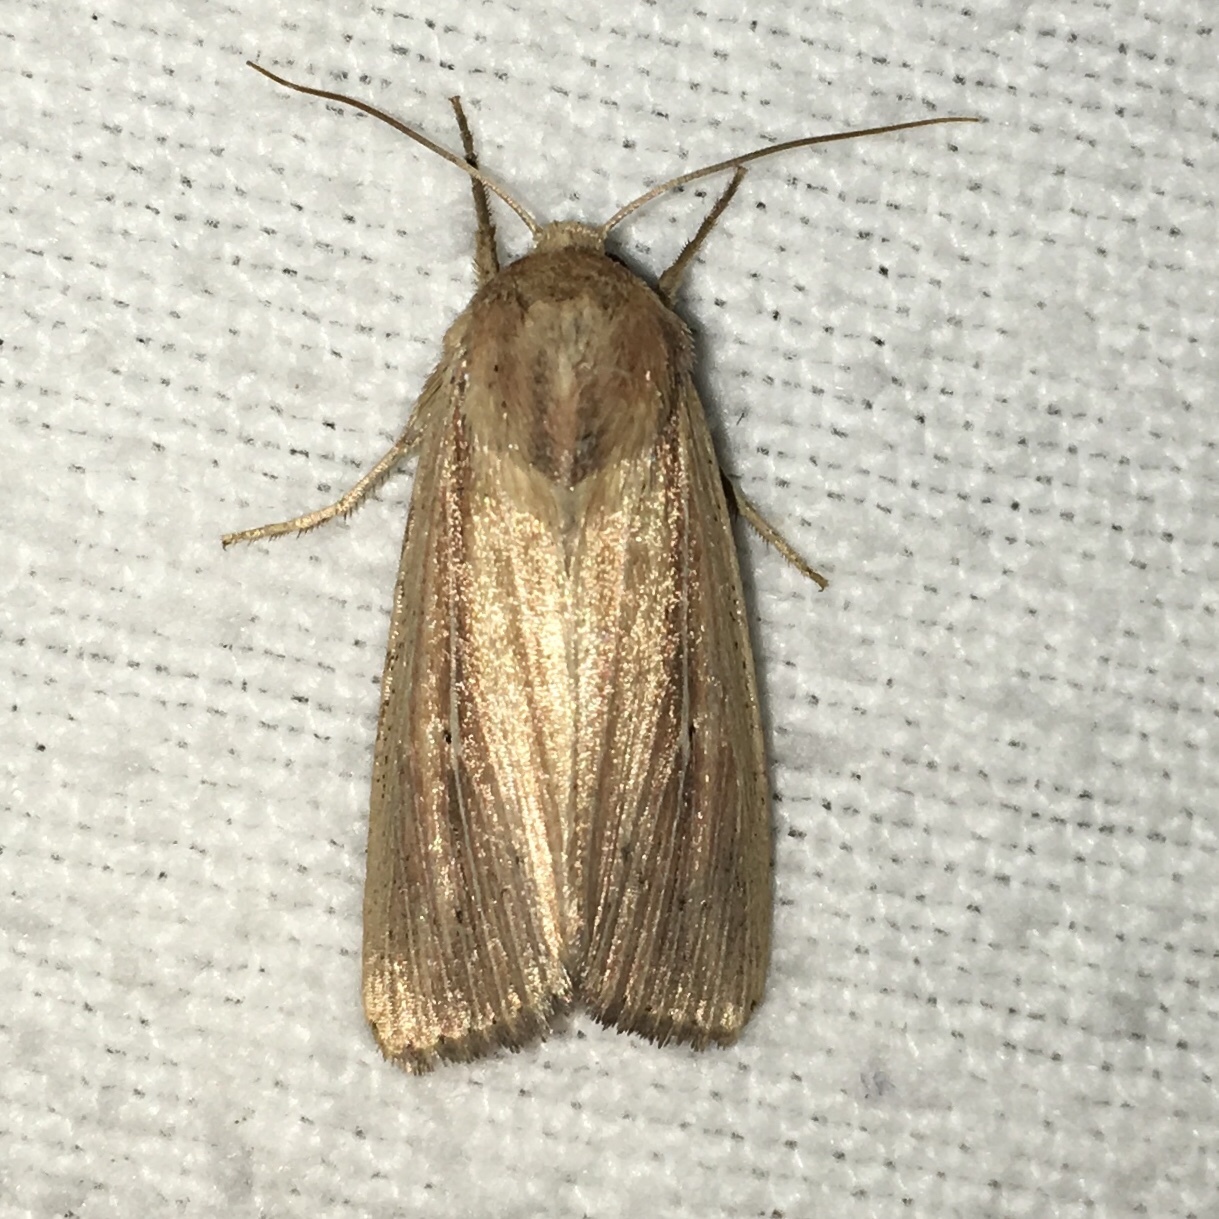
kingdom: Animalia
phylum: Arthropoda
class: Insecta
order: Lepidoptera
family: Noctuidae
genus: Mythimna
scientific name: Mythimna oxygala
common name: Lesser wainscot
